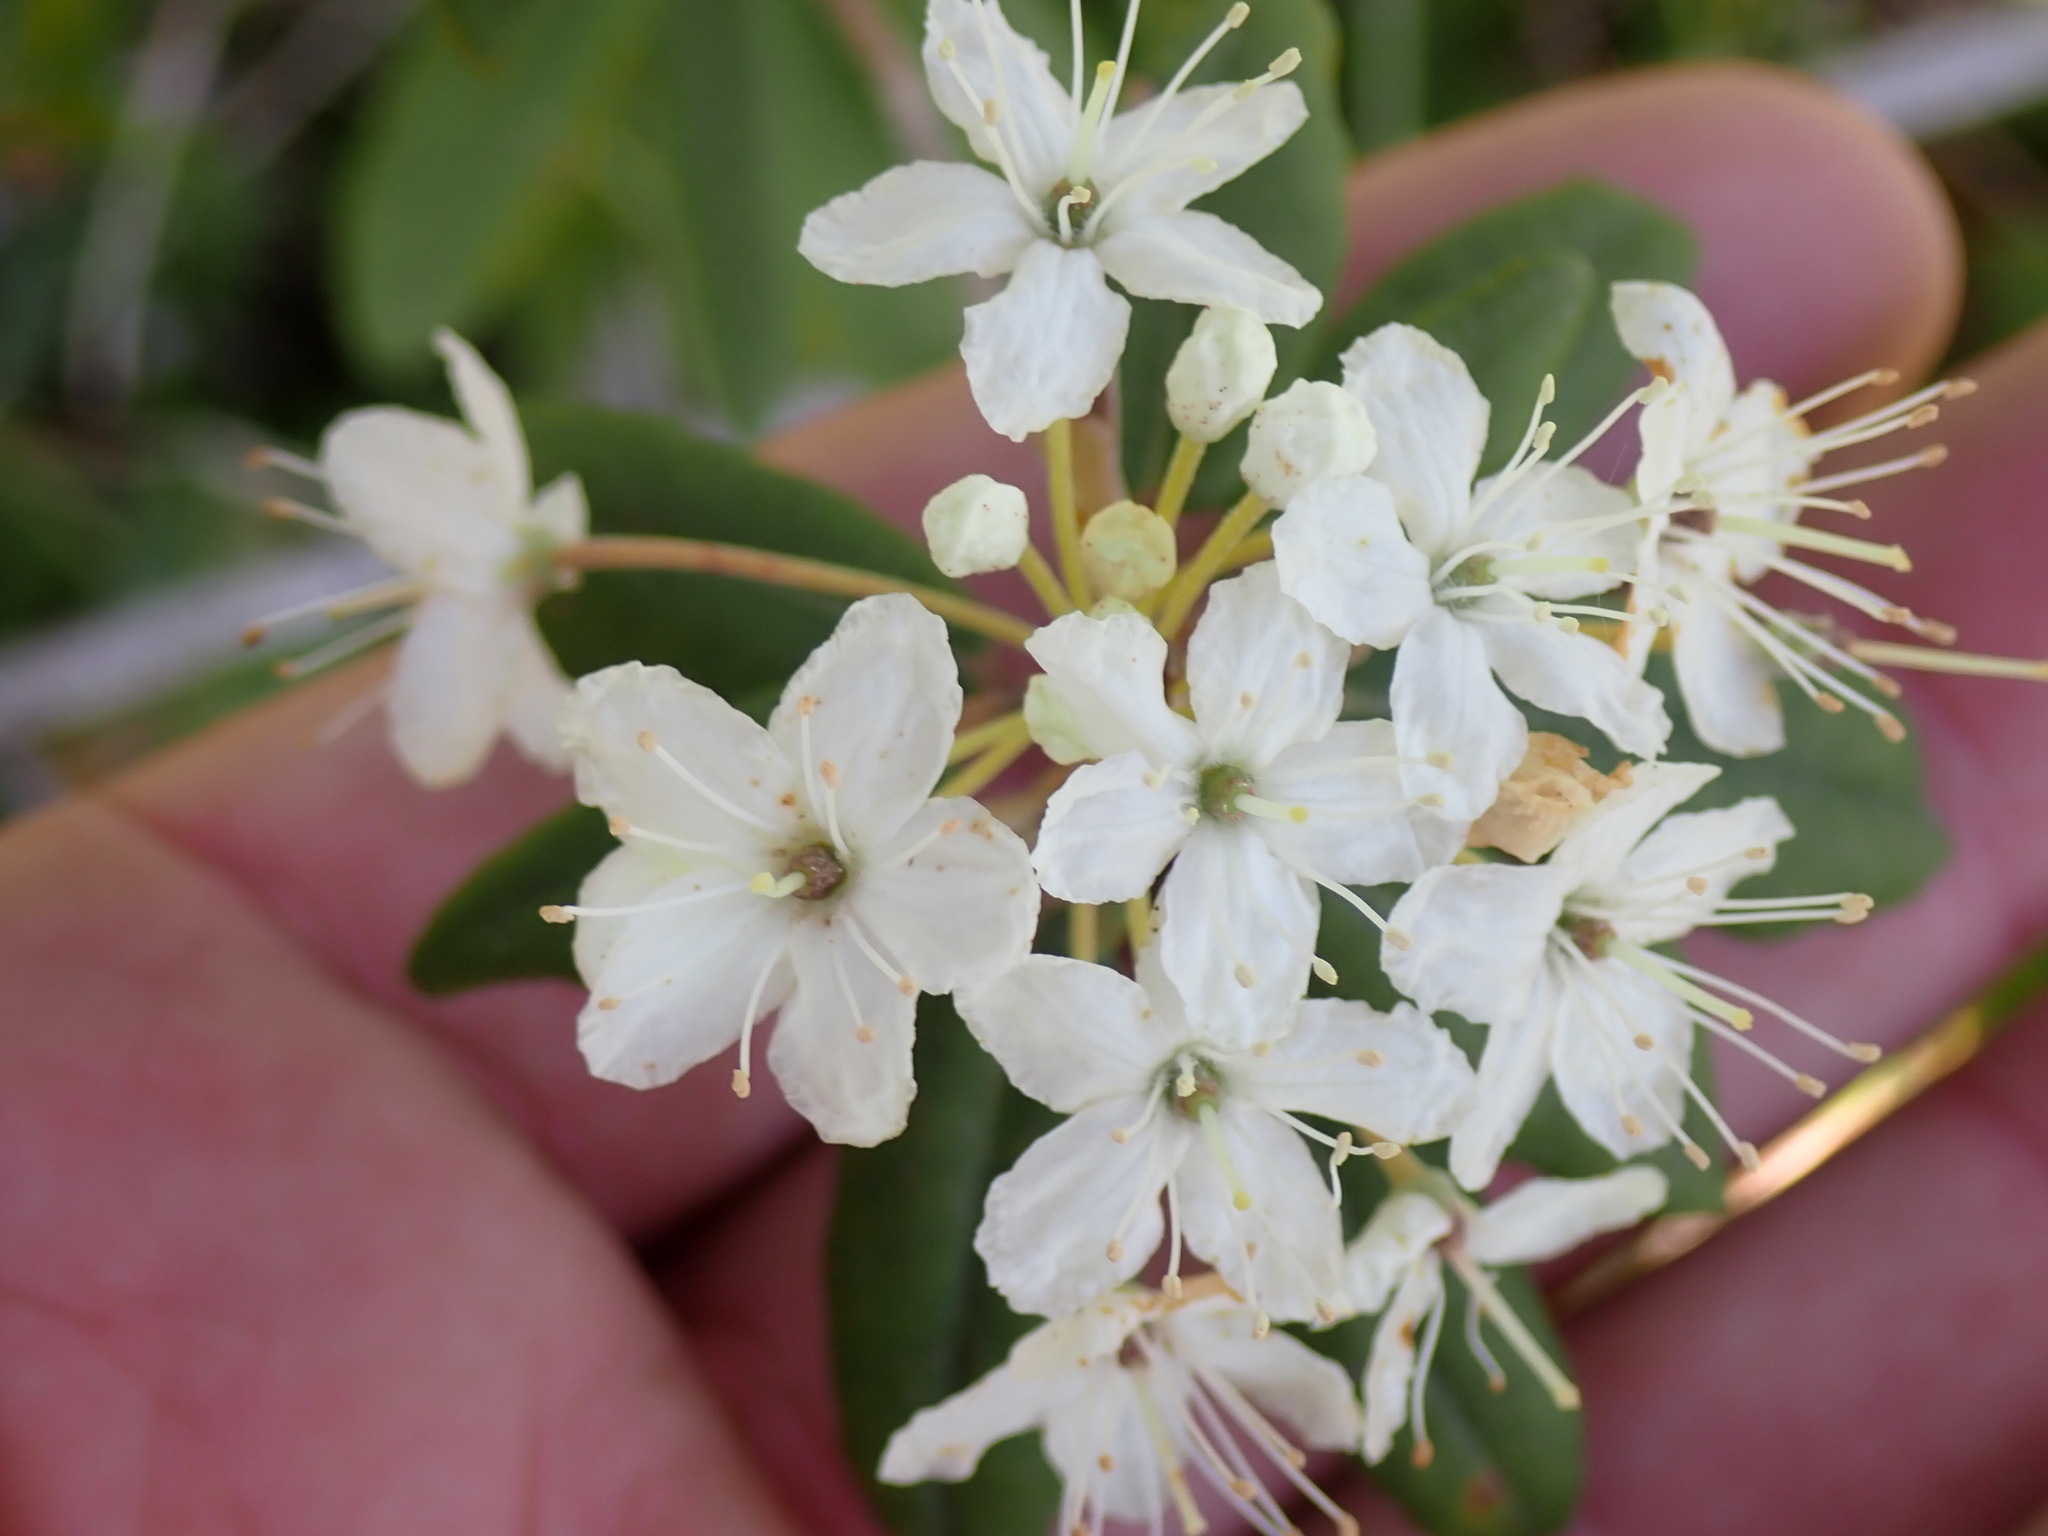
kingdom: Plantae
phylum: Tracheophyta
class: Magnoliopsida
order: Ericales
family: Ericaceae
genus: Rhododendron
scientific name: Rhododendron columbianum
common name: Western labrador tea
